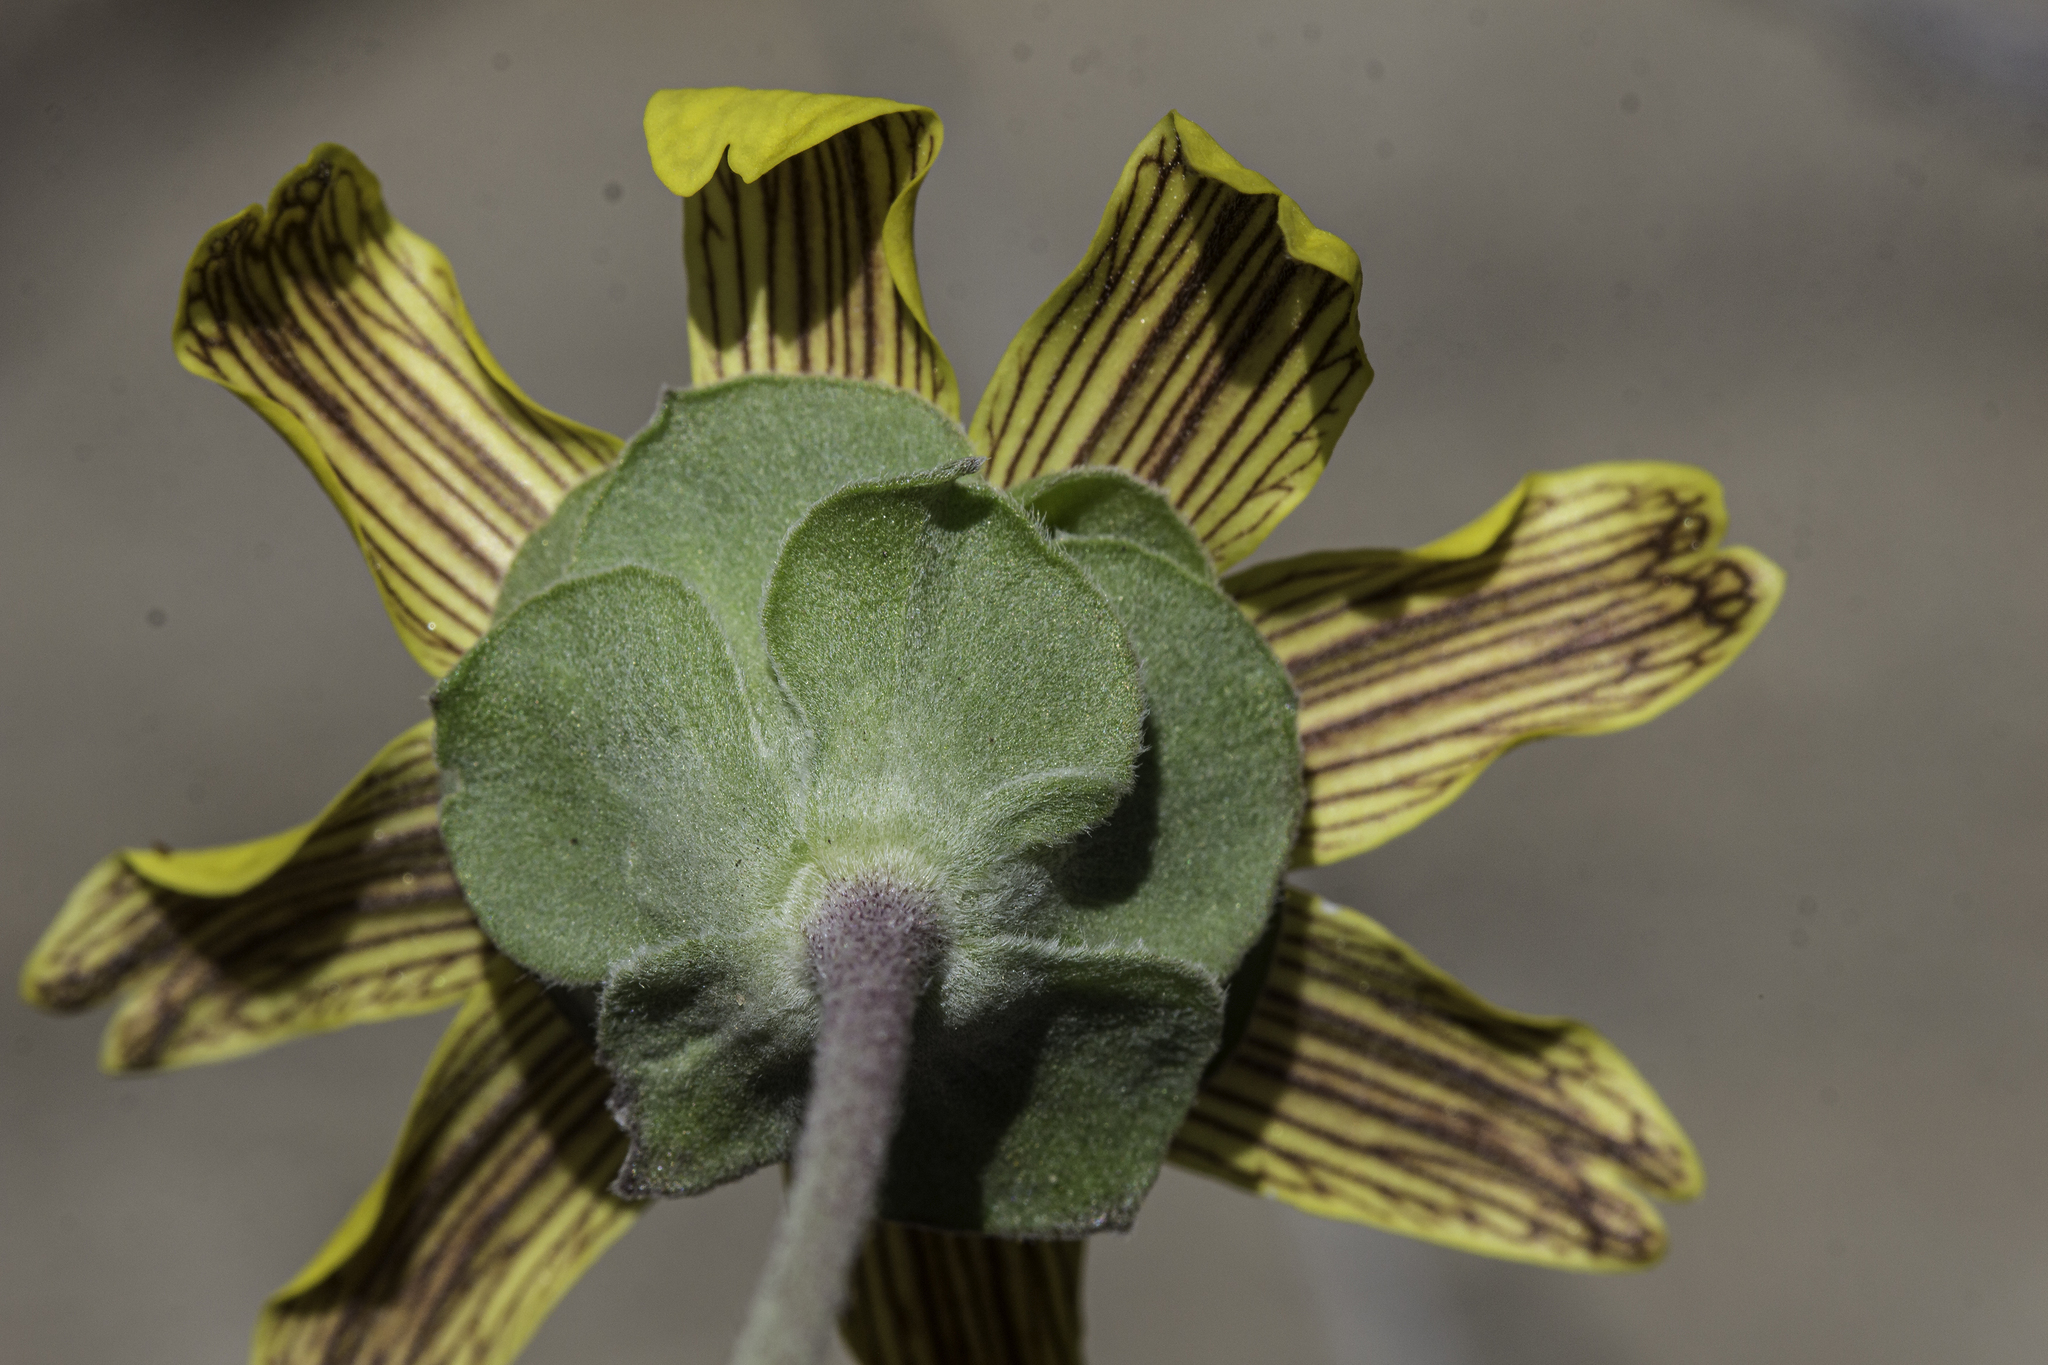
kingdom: Plantae
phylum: Tracheophyta
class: Magnoliopsida
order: Asterales
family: Asteraceae
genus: Berlandiera
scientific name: Berlandiera lyrata
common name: Chocolate-flower
